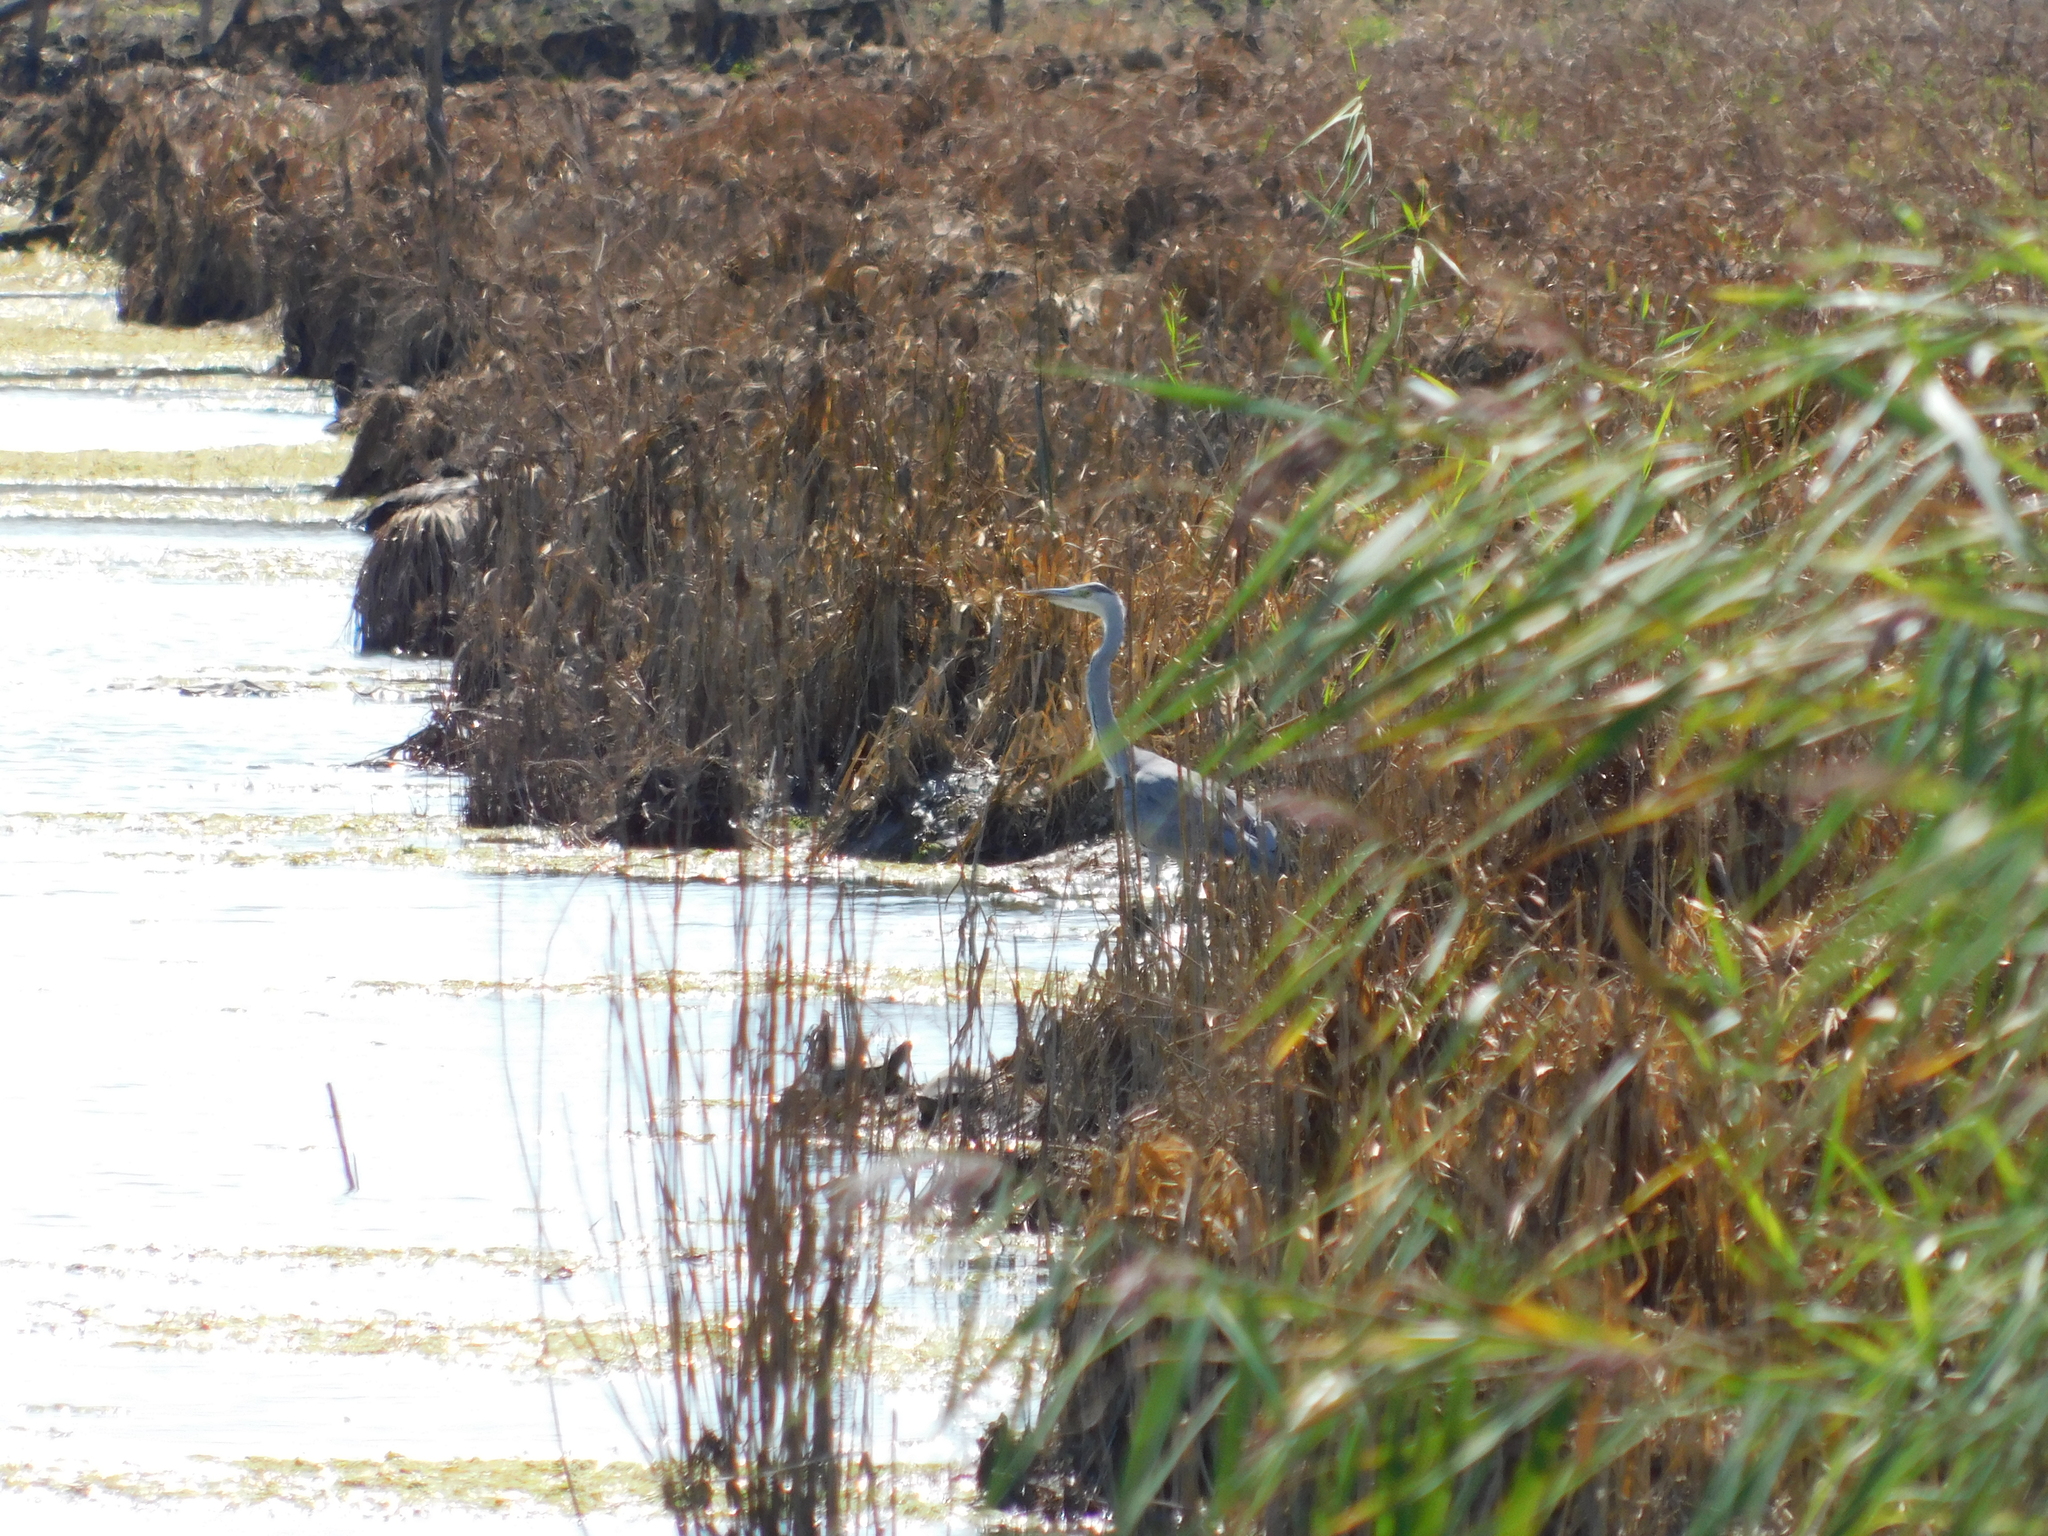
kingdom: Animalia
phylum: Chordata
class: Aves
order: Pelecaniformes
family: Ardeidae
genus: Ardea
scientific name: Ardea cinerea
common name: Grey heron
